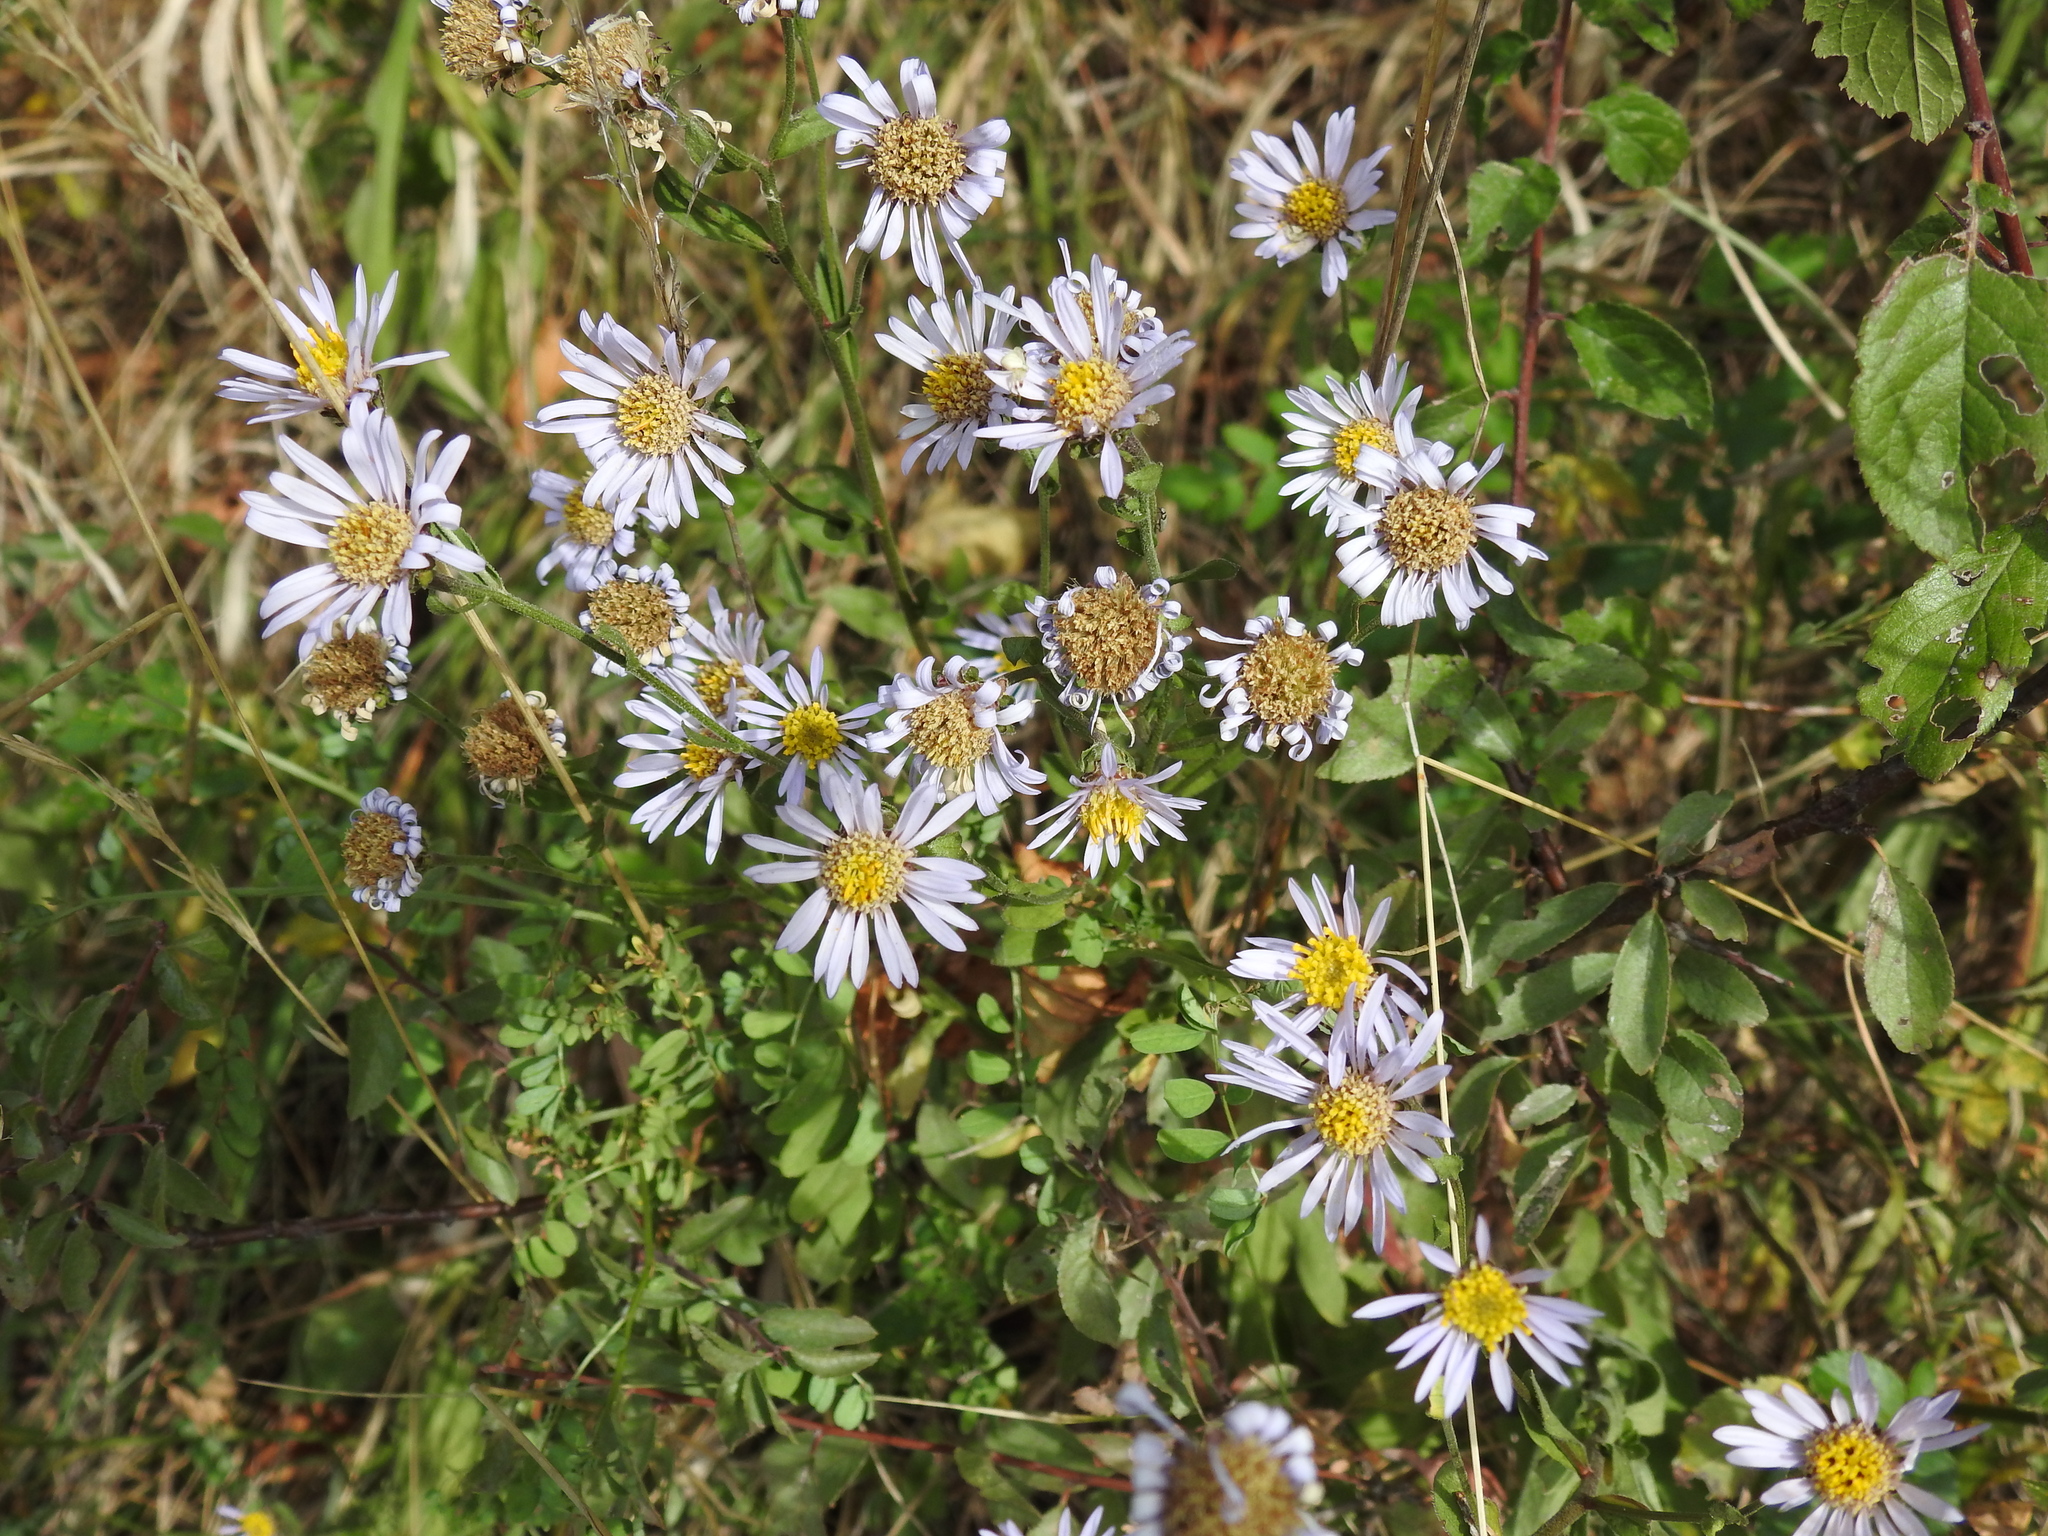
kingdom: Plantae
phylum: Tracheophyta
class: Magnoliopsida
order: Asterales
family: Asteraceae
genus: Aster
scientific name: Aster amellus
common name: European michaelmas daisy
